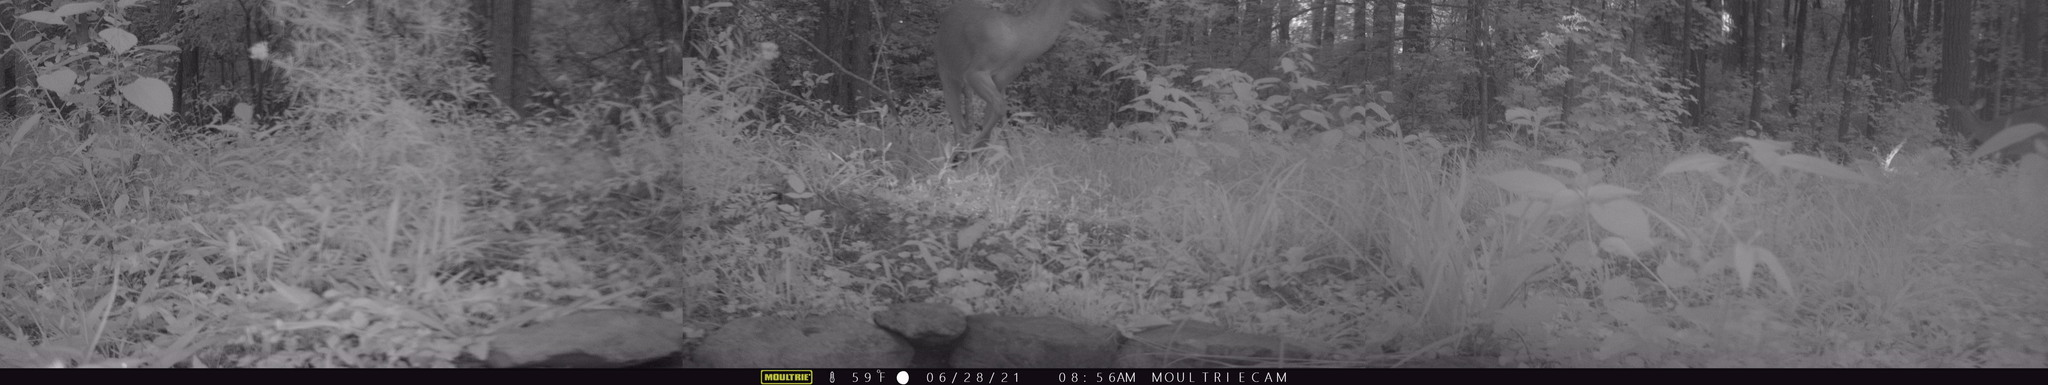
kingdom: Animalia
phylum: Chordata
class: Mammalia
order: Artiodactyla
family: Cervidae
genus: Odocoileus
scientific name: Odocoileus virginianus
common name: White-tailed deer
